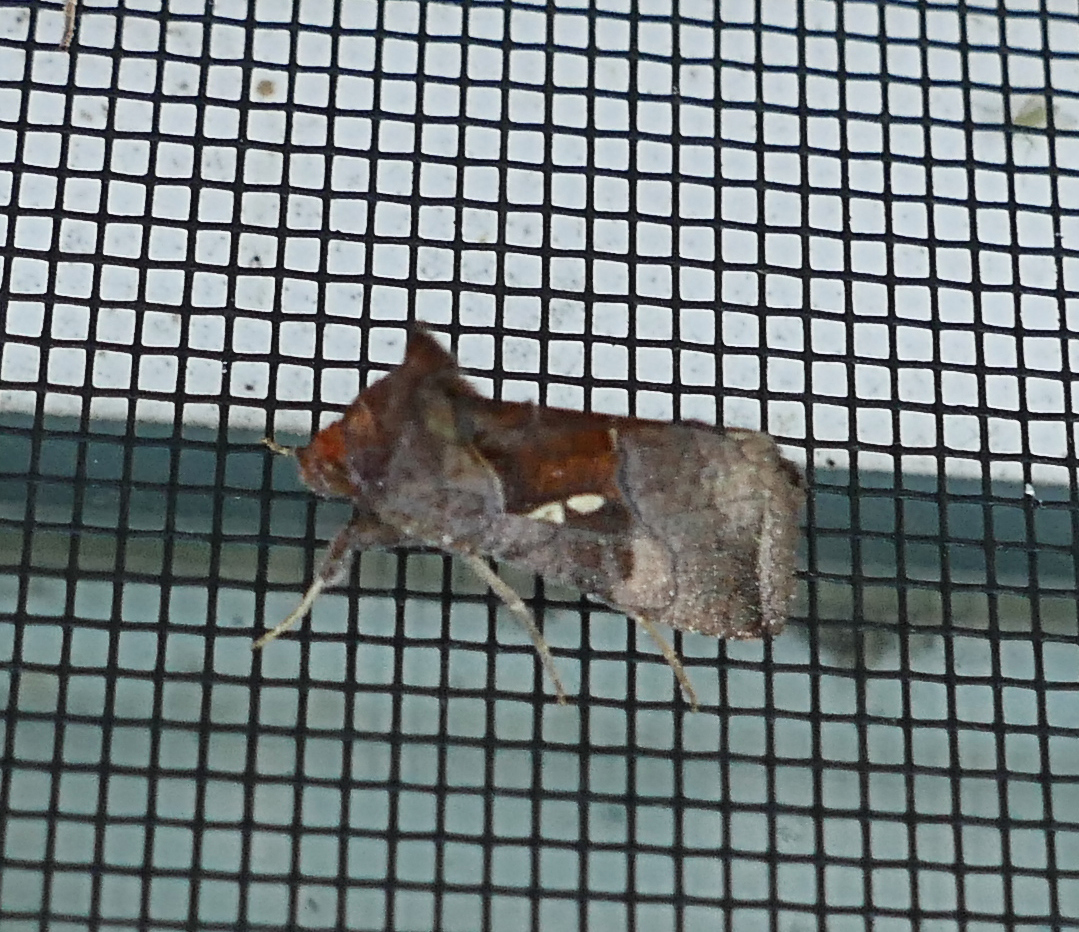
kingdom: Animalia
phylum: Arthropoda
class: Insecta
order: Lepidoptera
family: Noctuidae
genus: Enigmogramma
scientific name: Enigmogramma basigera
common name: Pink-washed looper moth
